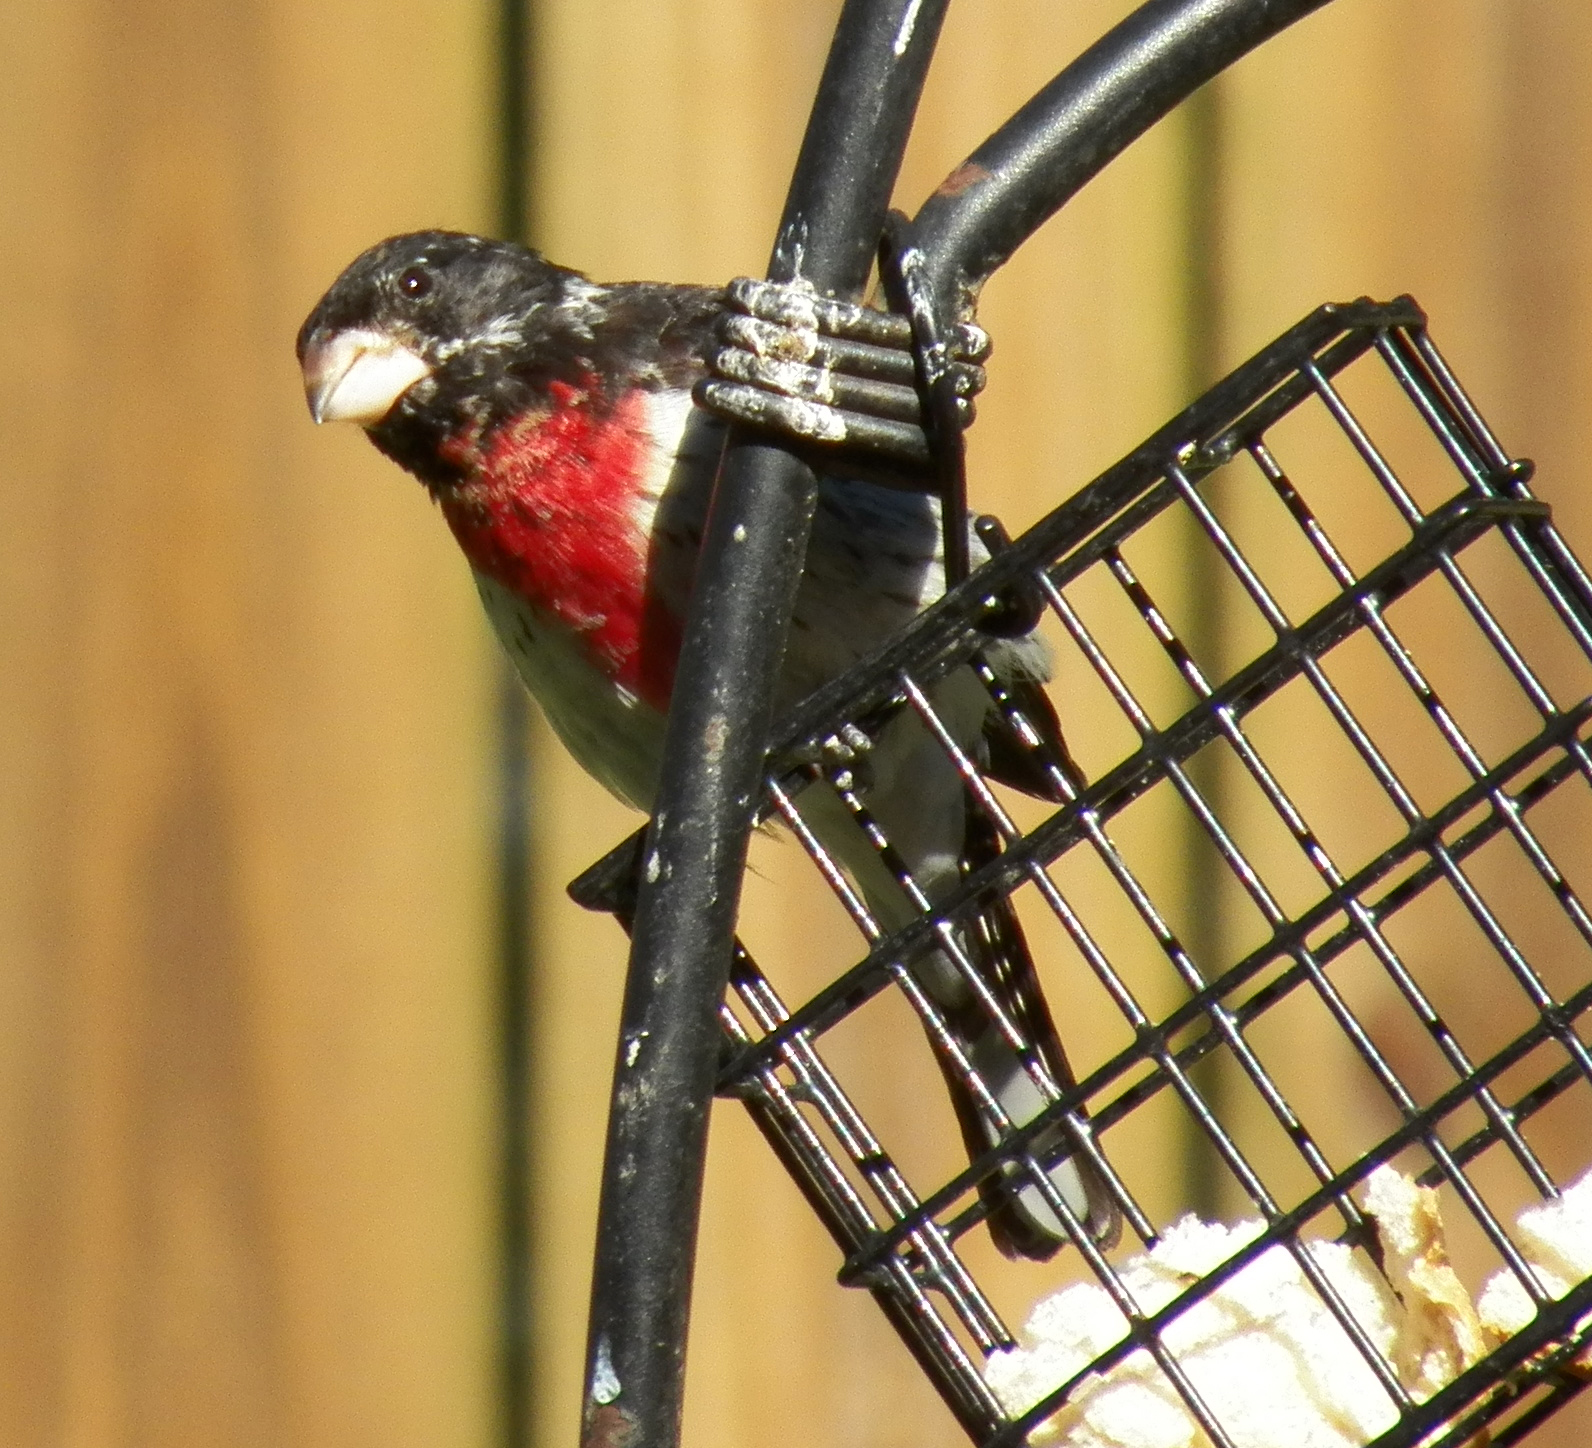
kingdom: Animalia
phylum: Chordata
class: Aves
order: Passeriformes
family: Cardinalidae
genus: Pheucticus
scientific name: Pheucticus ludovicianus
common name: Rose-breasted grosbeak
